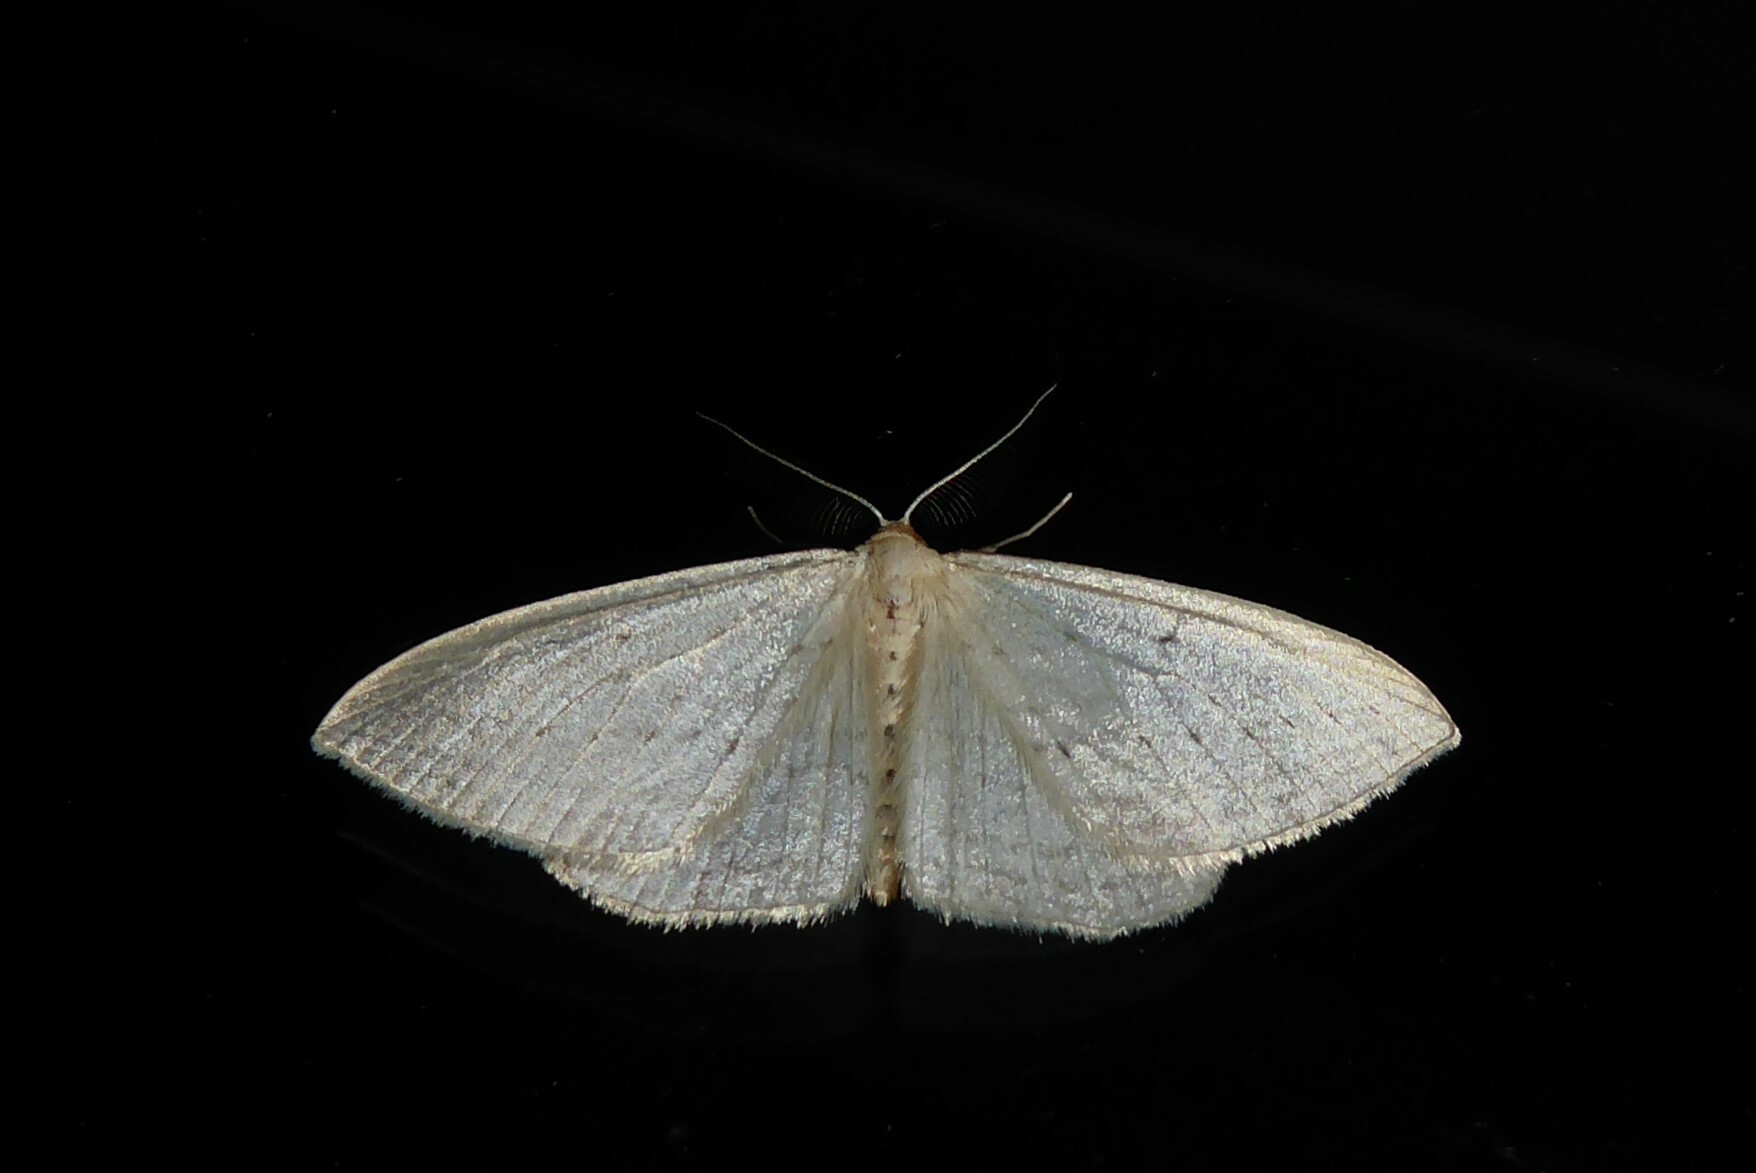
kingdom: Animalia
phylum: Arthropoda
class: Insecta
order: Lepidoptera
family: Geometridae
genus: Orthoclydon
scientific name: Orthoclydon praefectata
